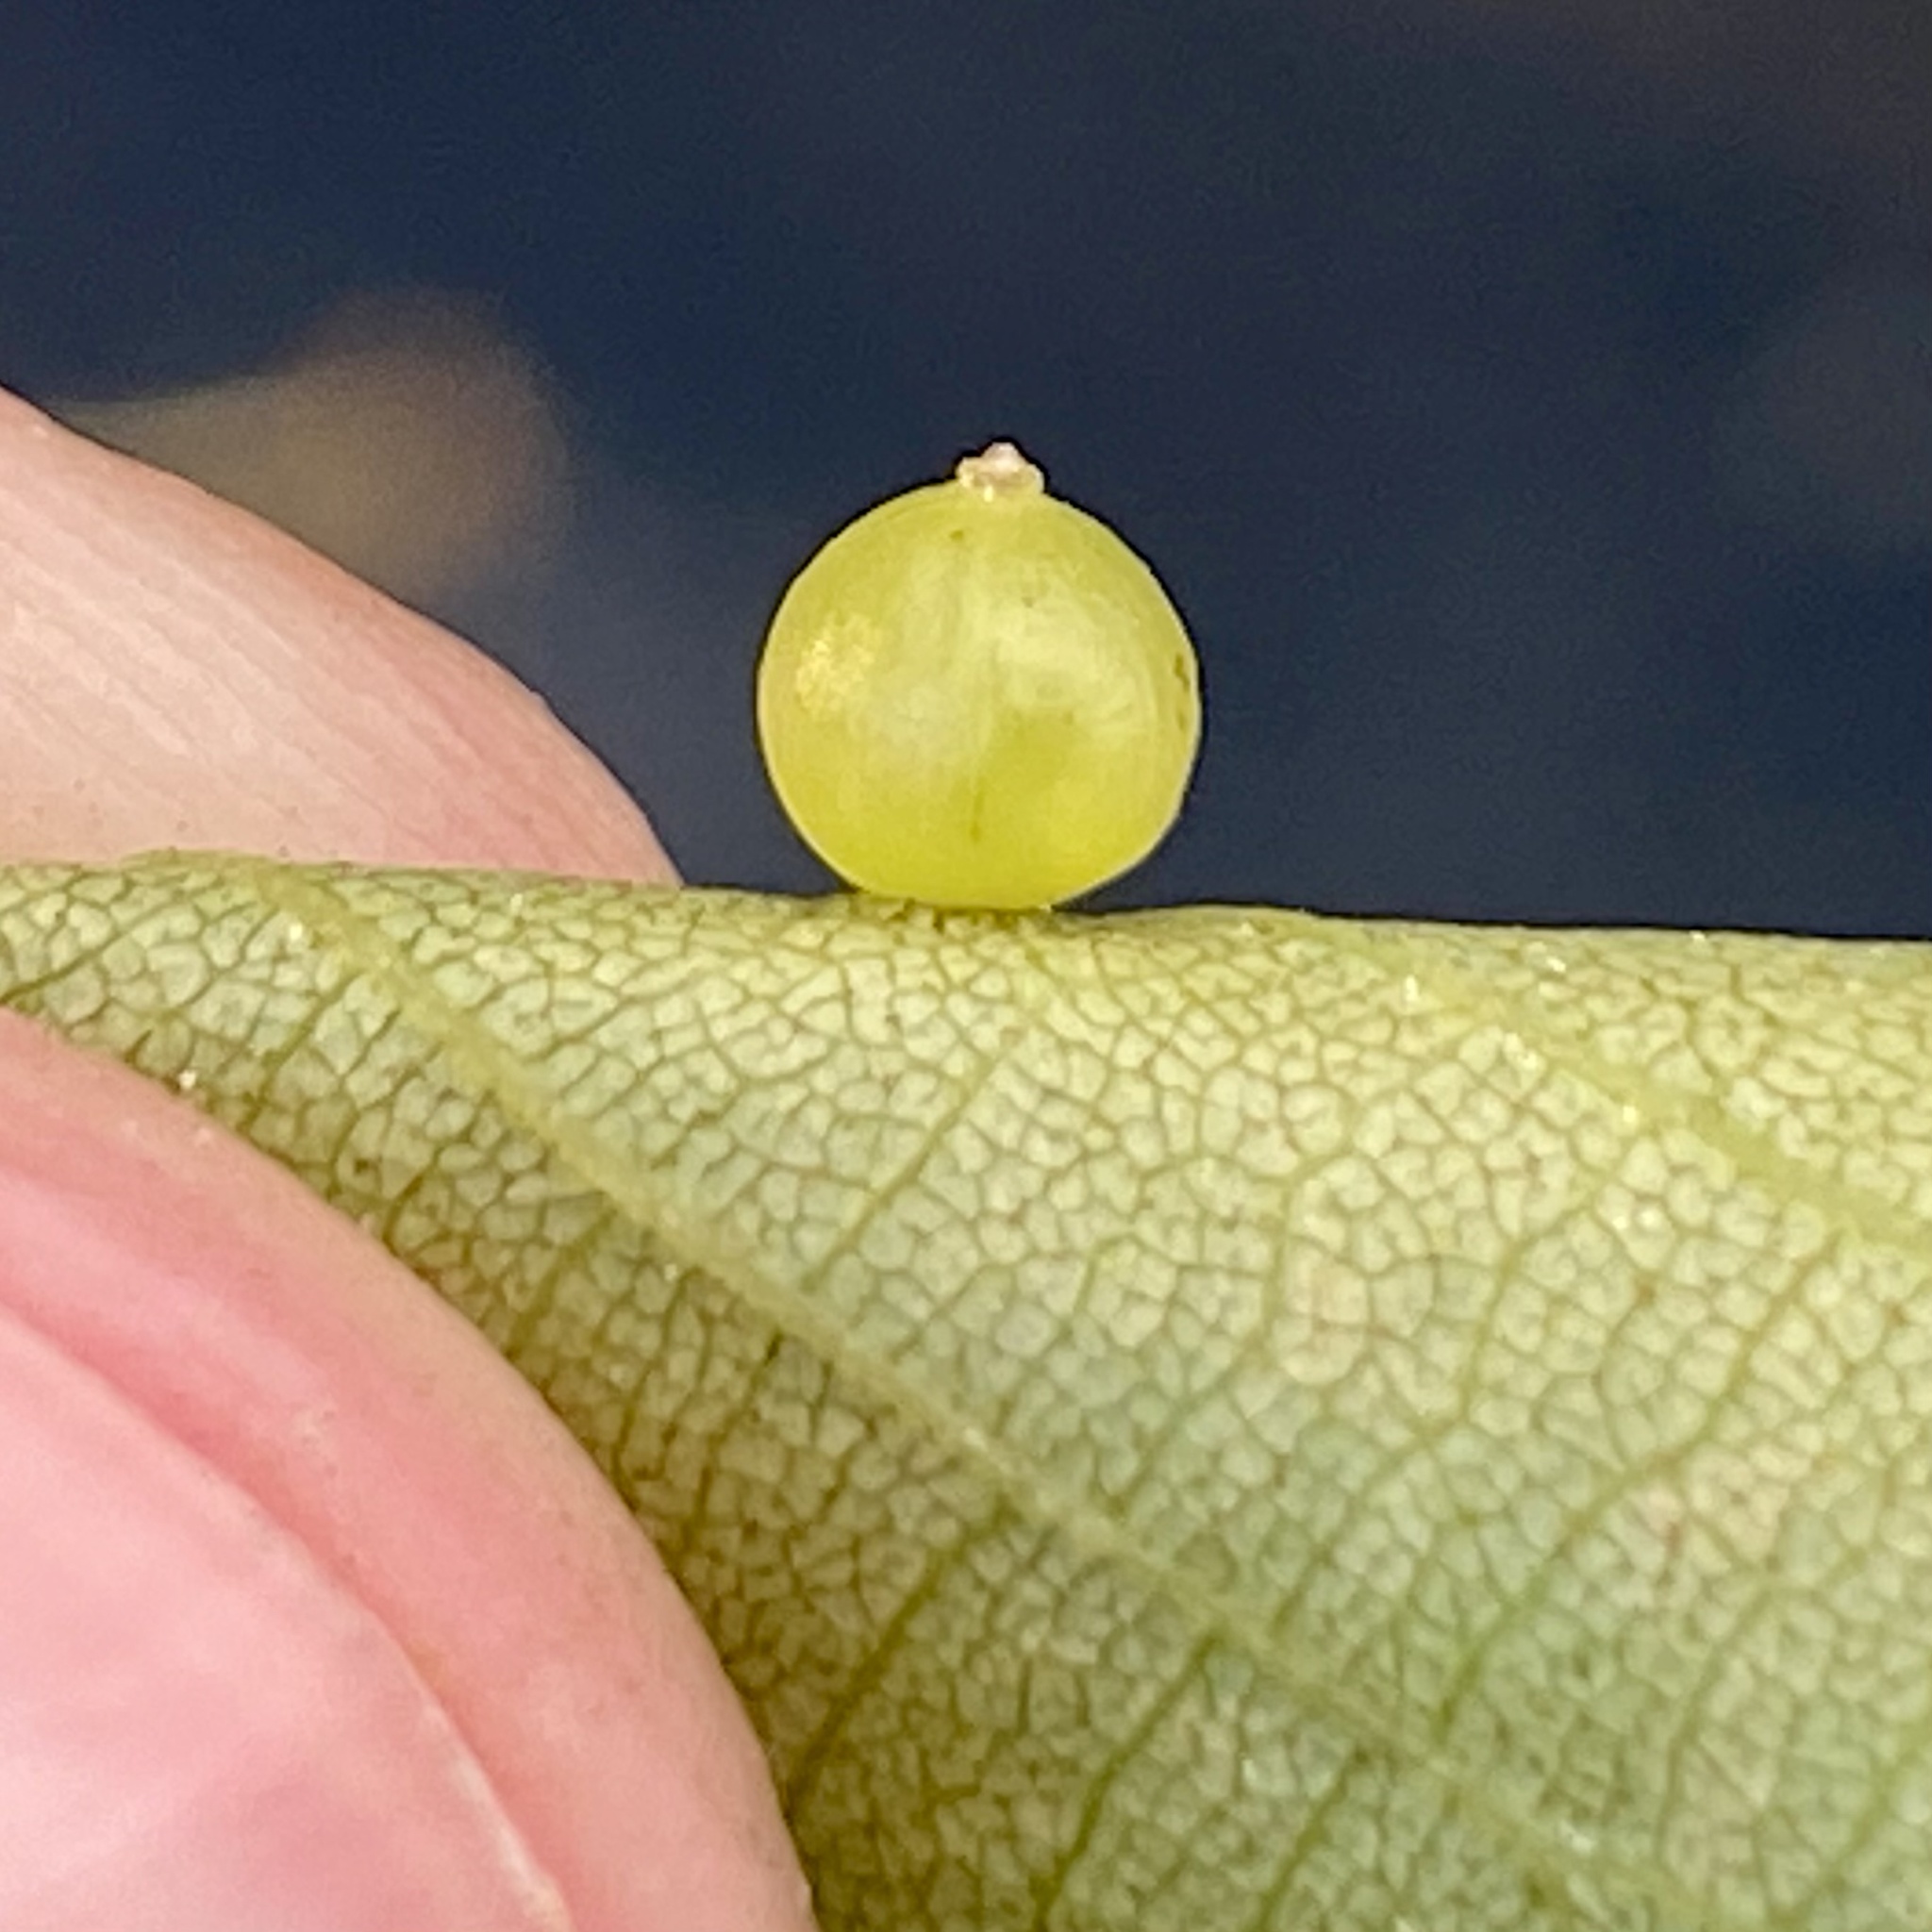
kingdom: Animalia
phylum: Arthropoda
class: Insecta
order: Diptera
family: Cecidomyiidae
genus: Caryomyia
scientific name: Caryomyia leviglobus
